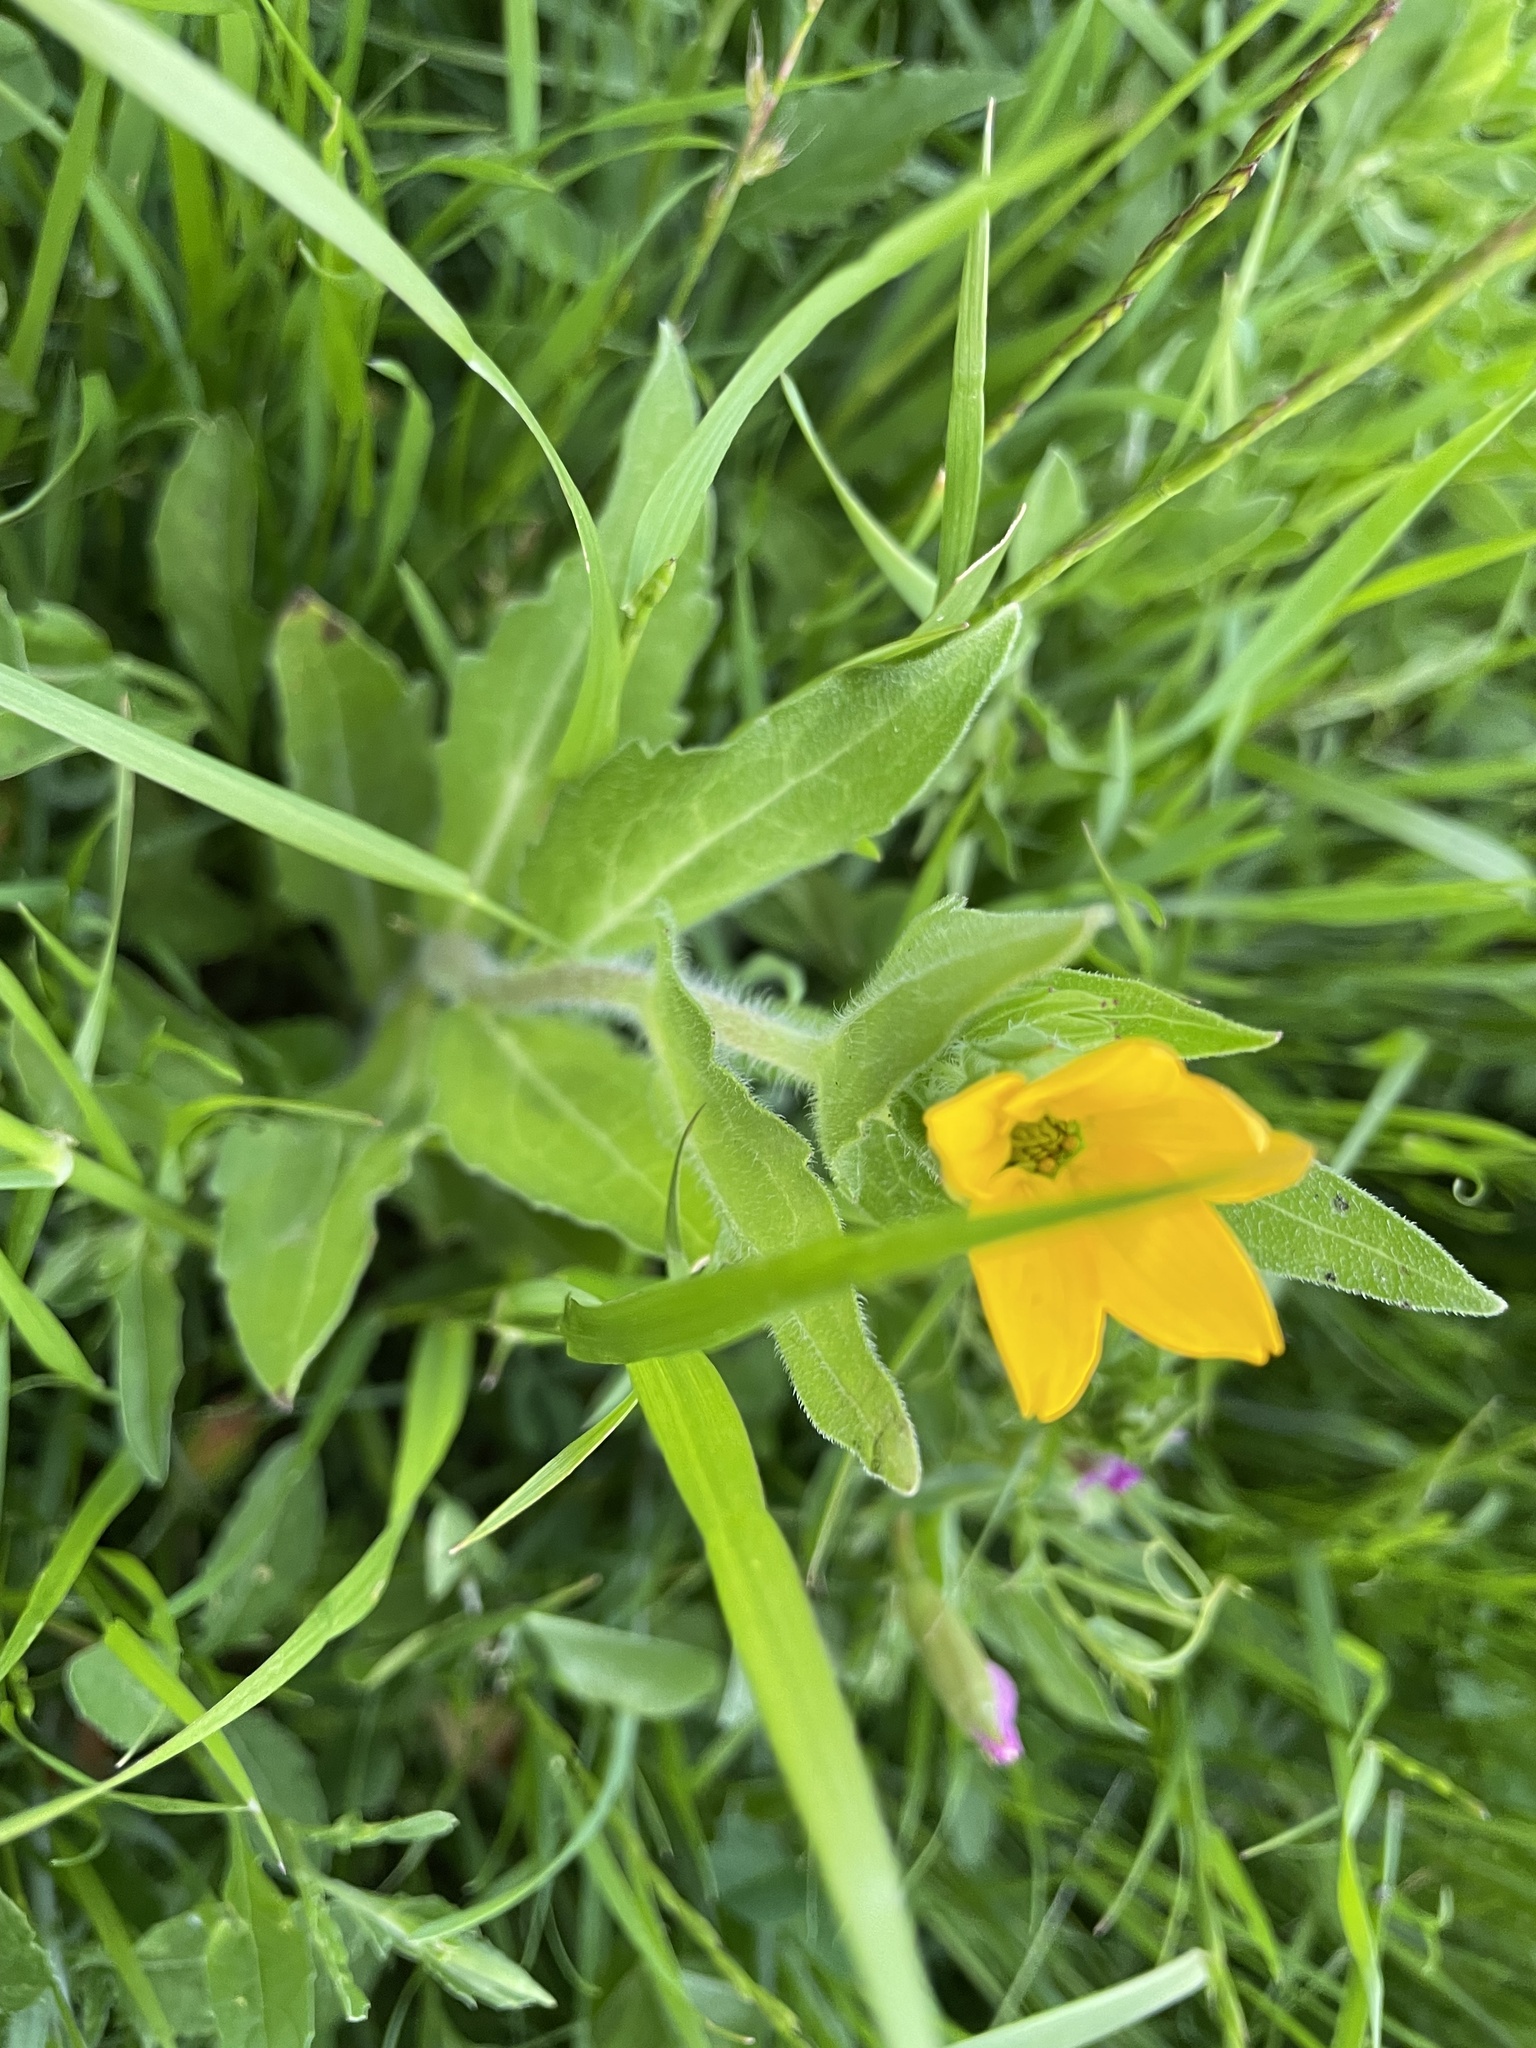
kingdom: Plantae
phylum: Tracheophyta
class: Magnoliopsida
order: Asterales
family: Asteraceae
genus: Lindheimera
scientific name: Lindheimera texana
